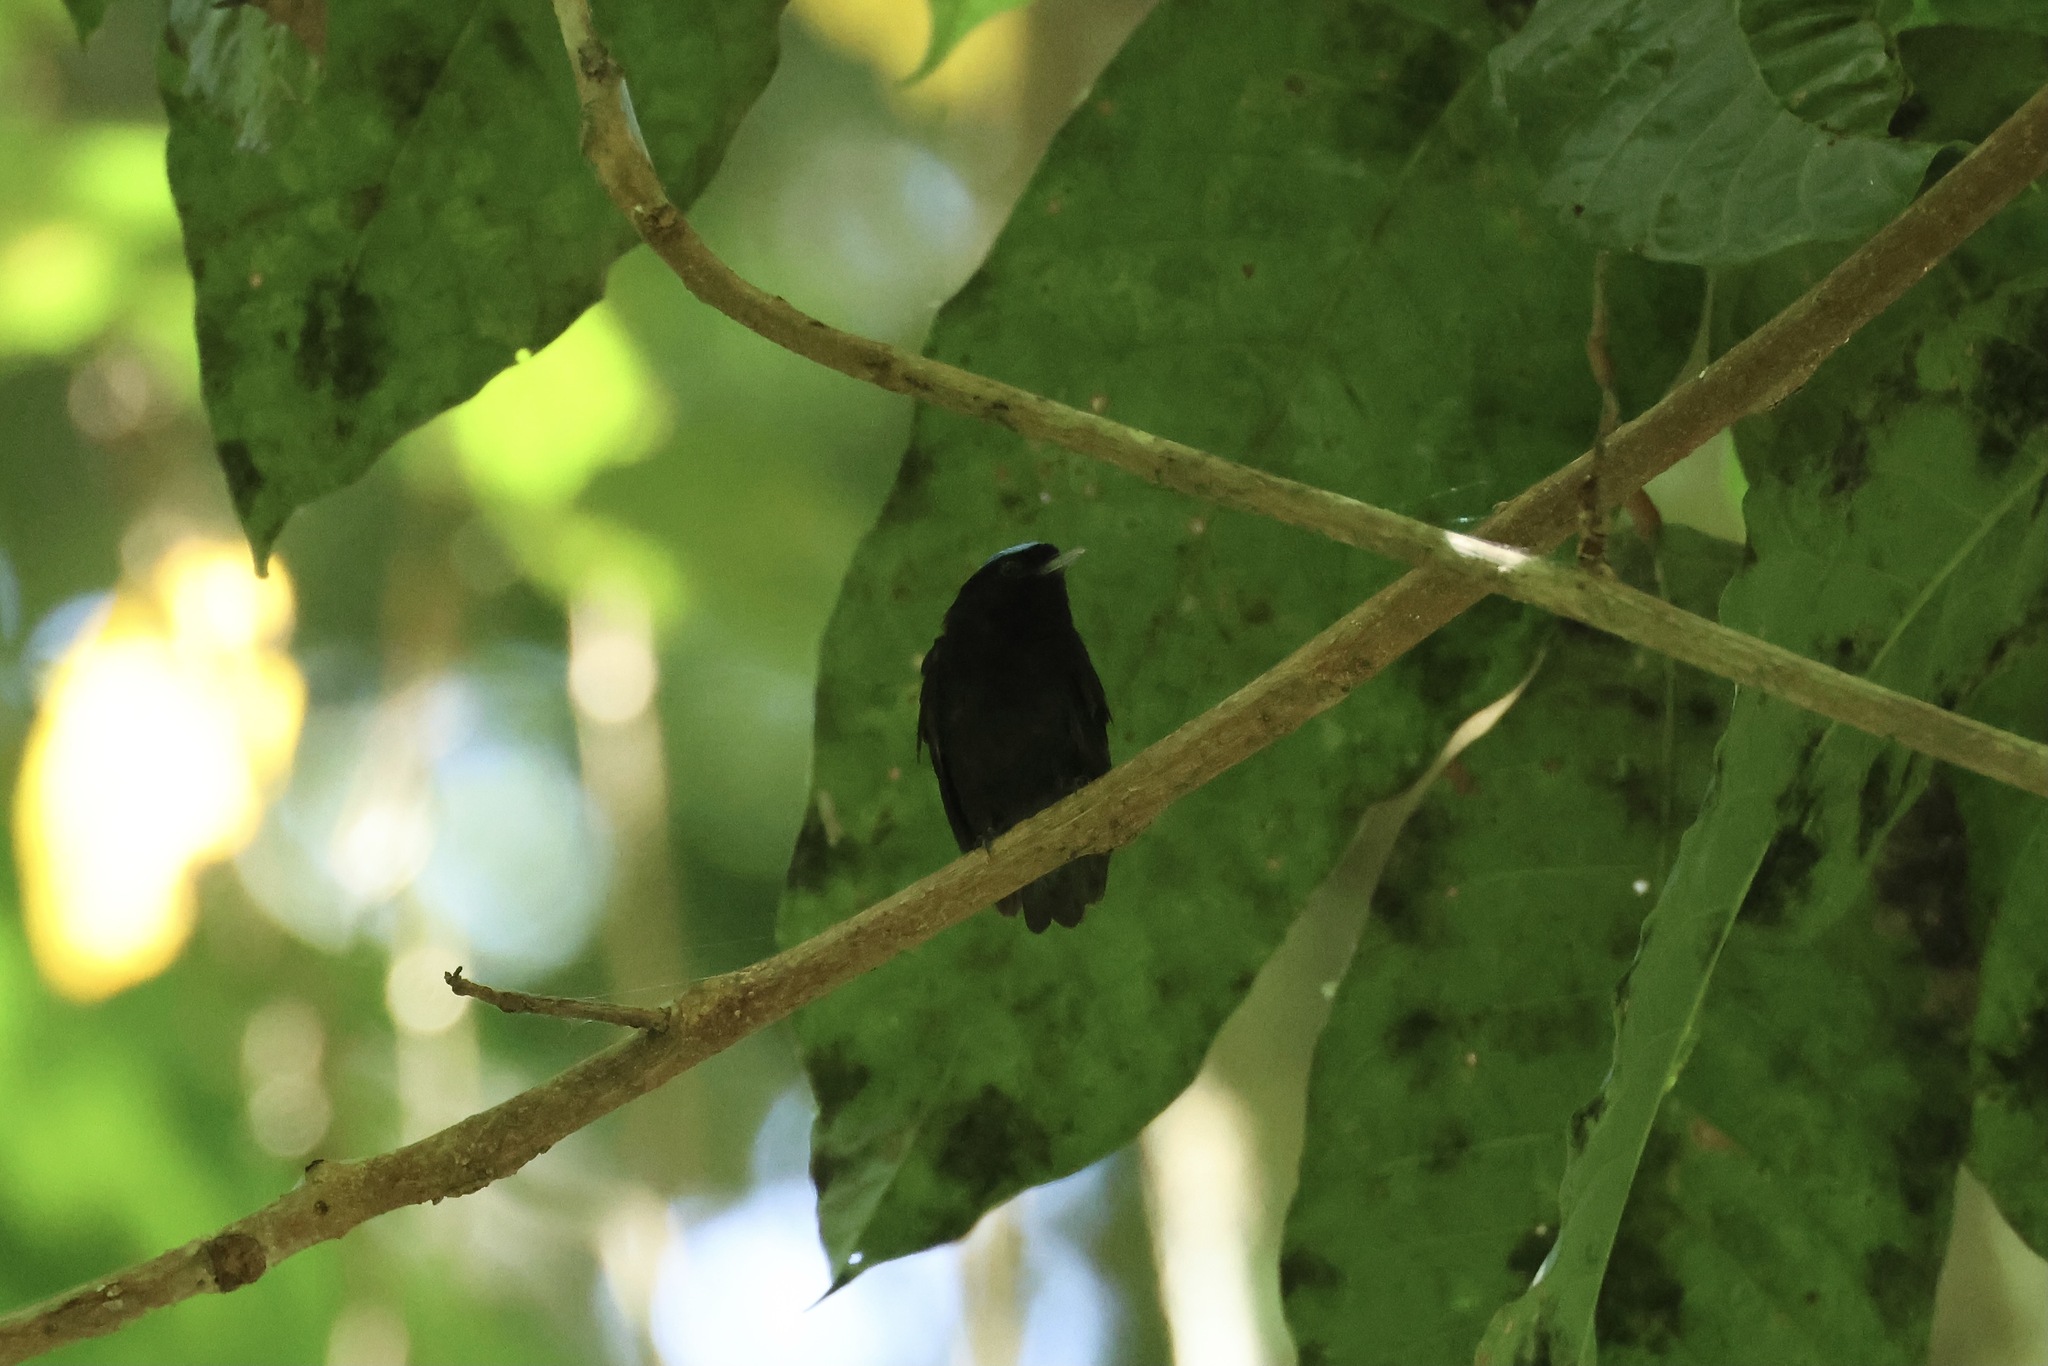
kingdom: Animalia
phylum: Chordata
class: Aves
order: Passeriformes
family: Pipridae
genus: Lepidothrix
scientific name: Lepidothrix coronata
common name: Blue-crowned manakin
